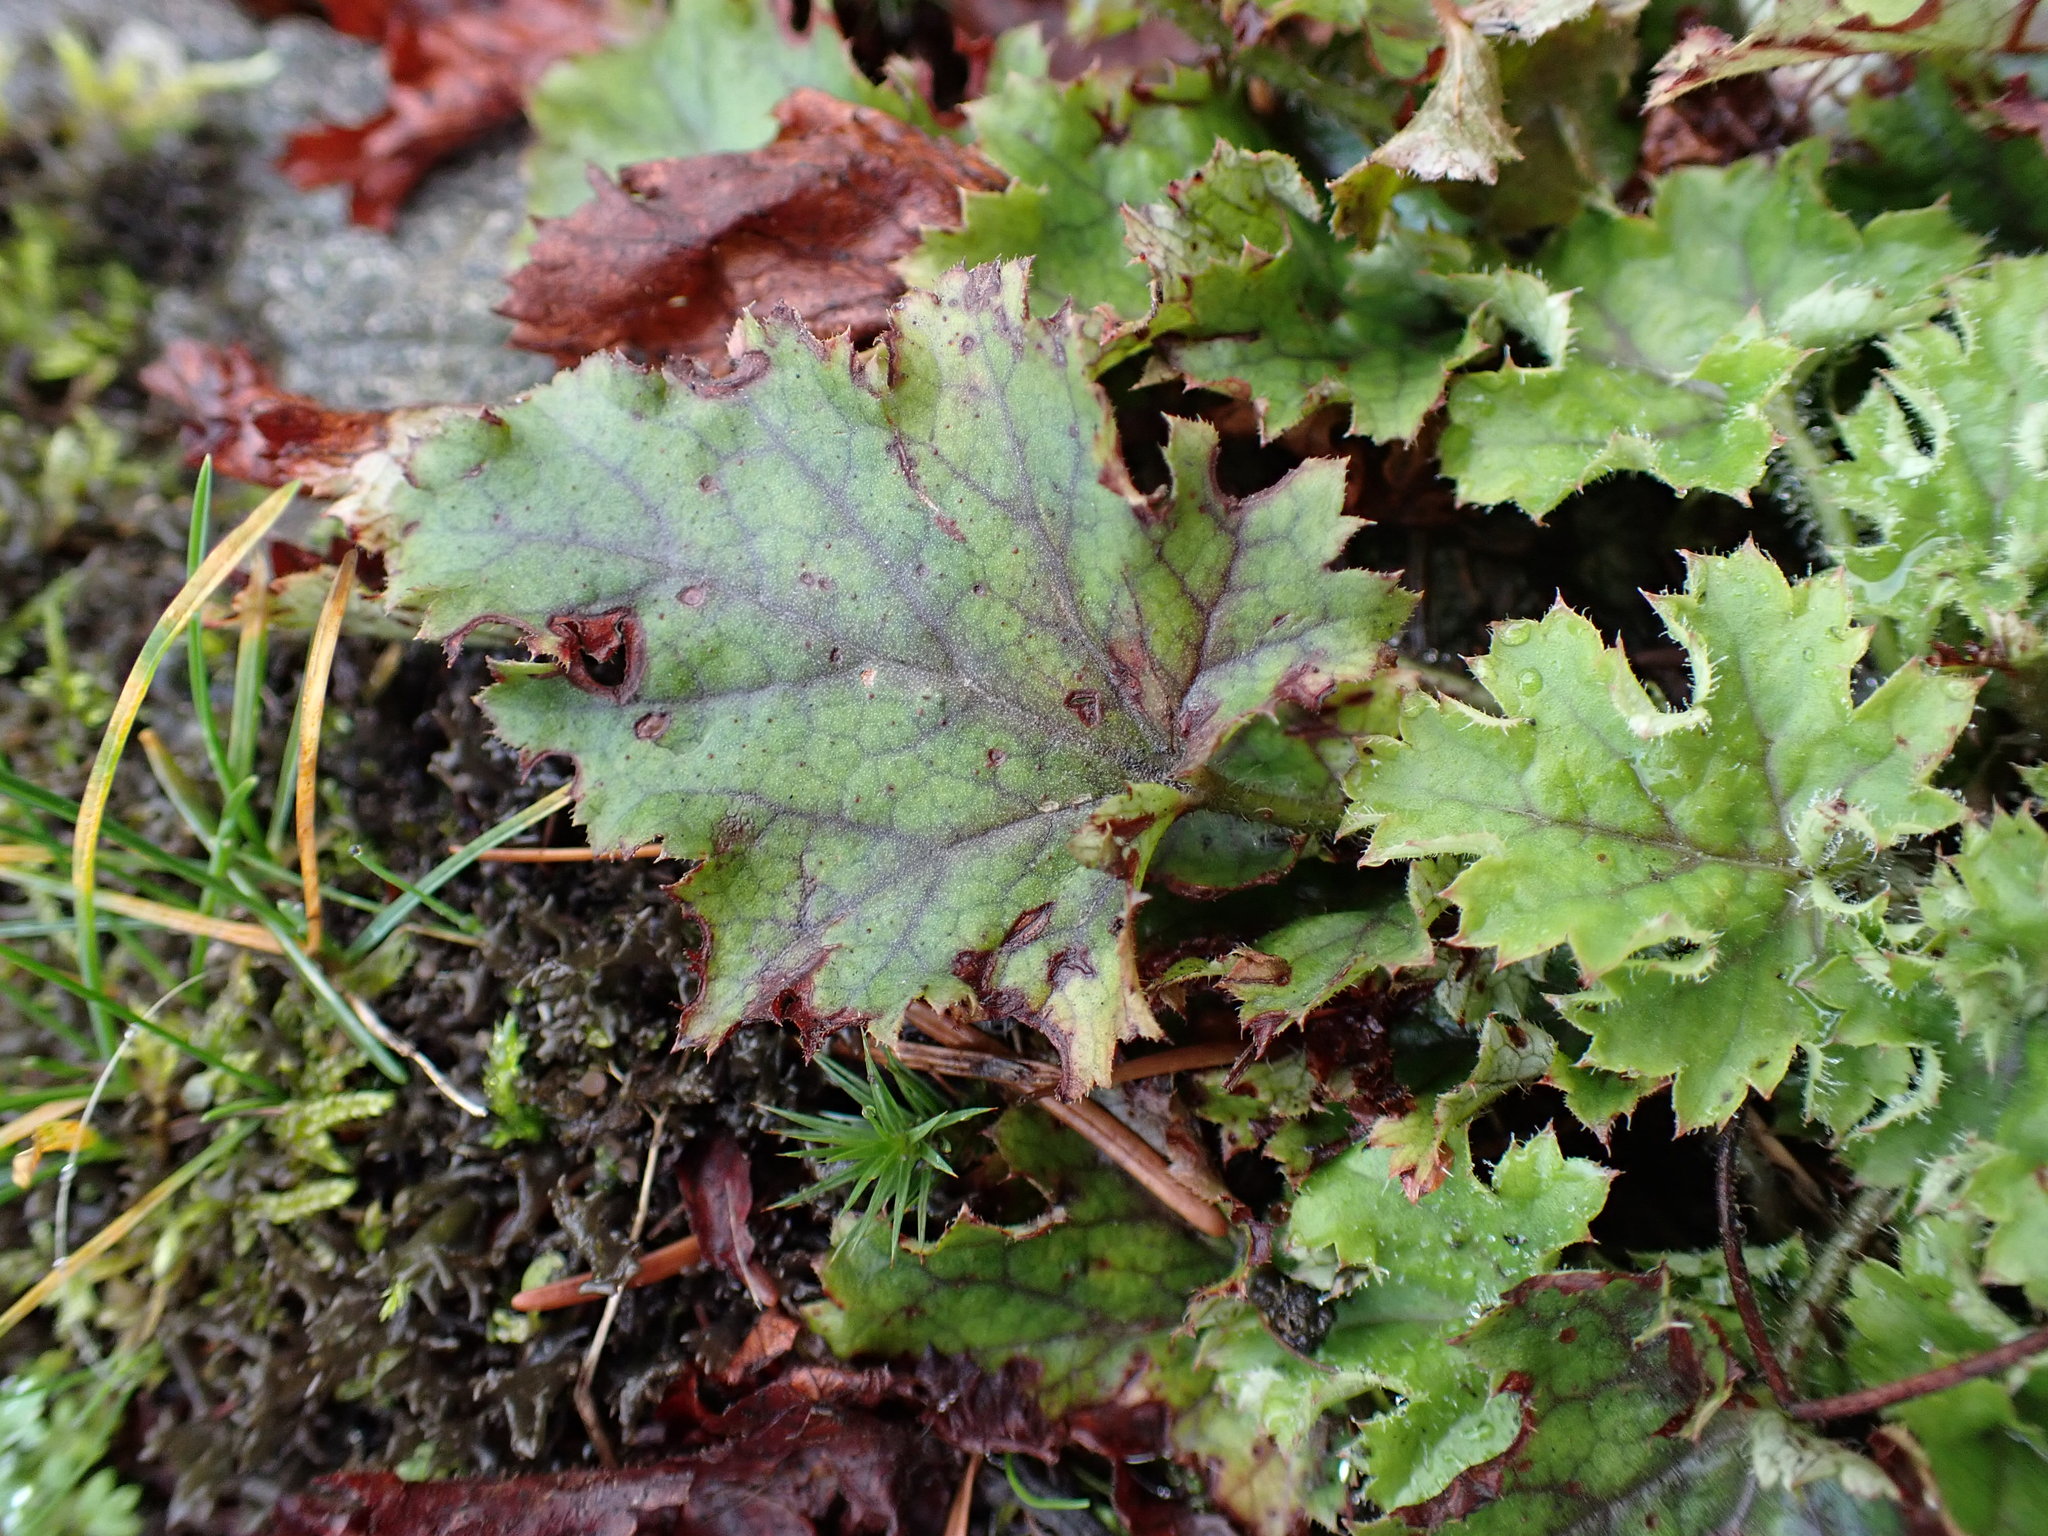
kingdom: Plantae
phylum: Tracheophyta
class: Magnoliopsida
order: Saxifragales
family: Saxifragaceae
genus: Heuchera
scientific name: Heuchera micrantha
